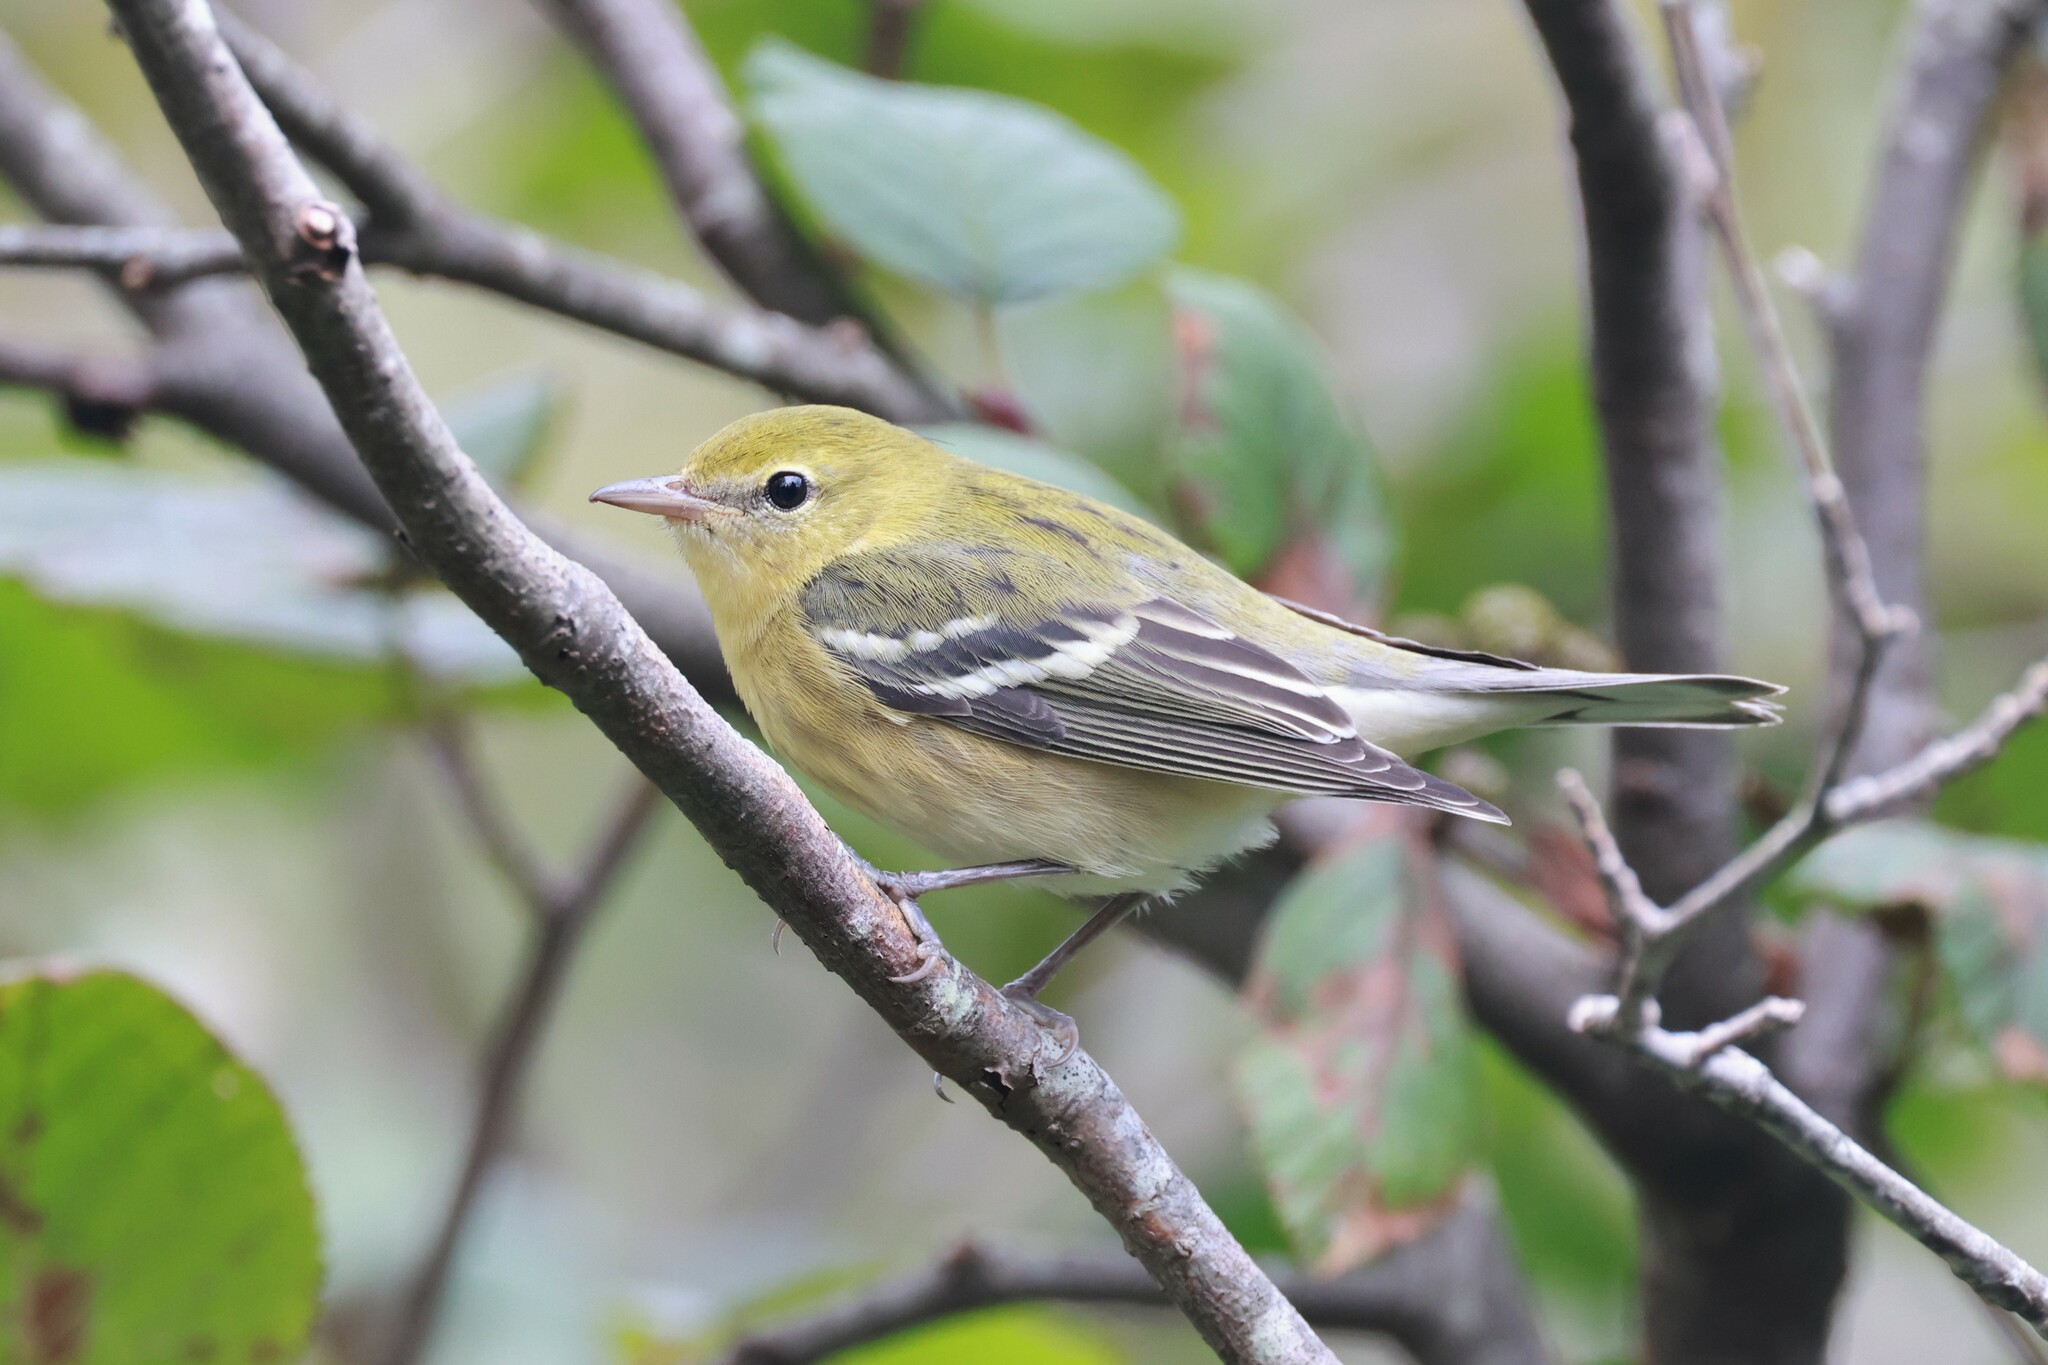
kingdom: Animalia
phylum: Chordata
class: Aves
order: Passeriformes
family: Parulidae
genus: Setophaga
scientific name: Setophaga castanea
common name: Bay-breasted warbler
